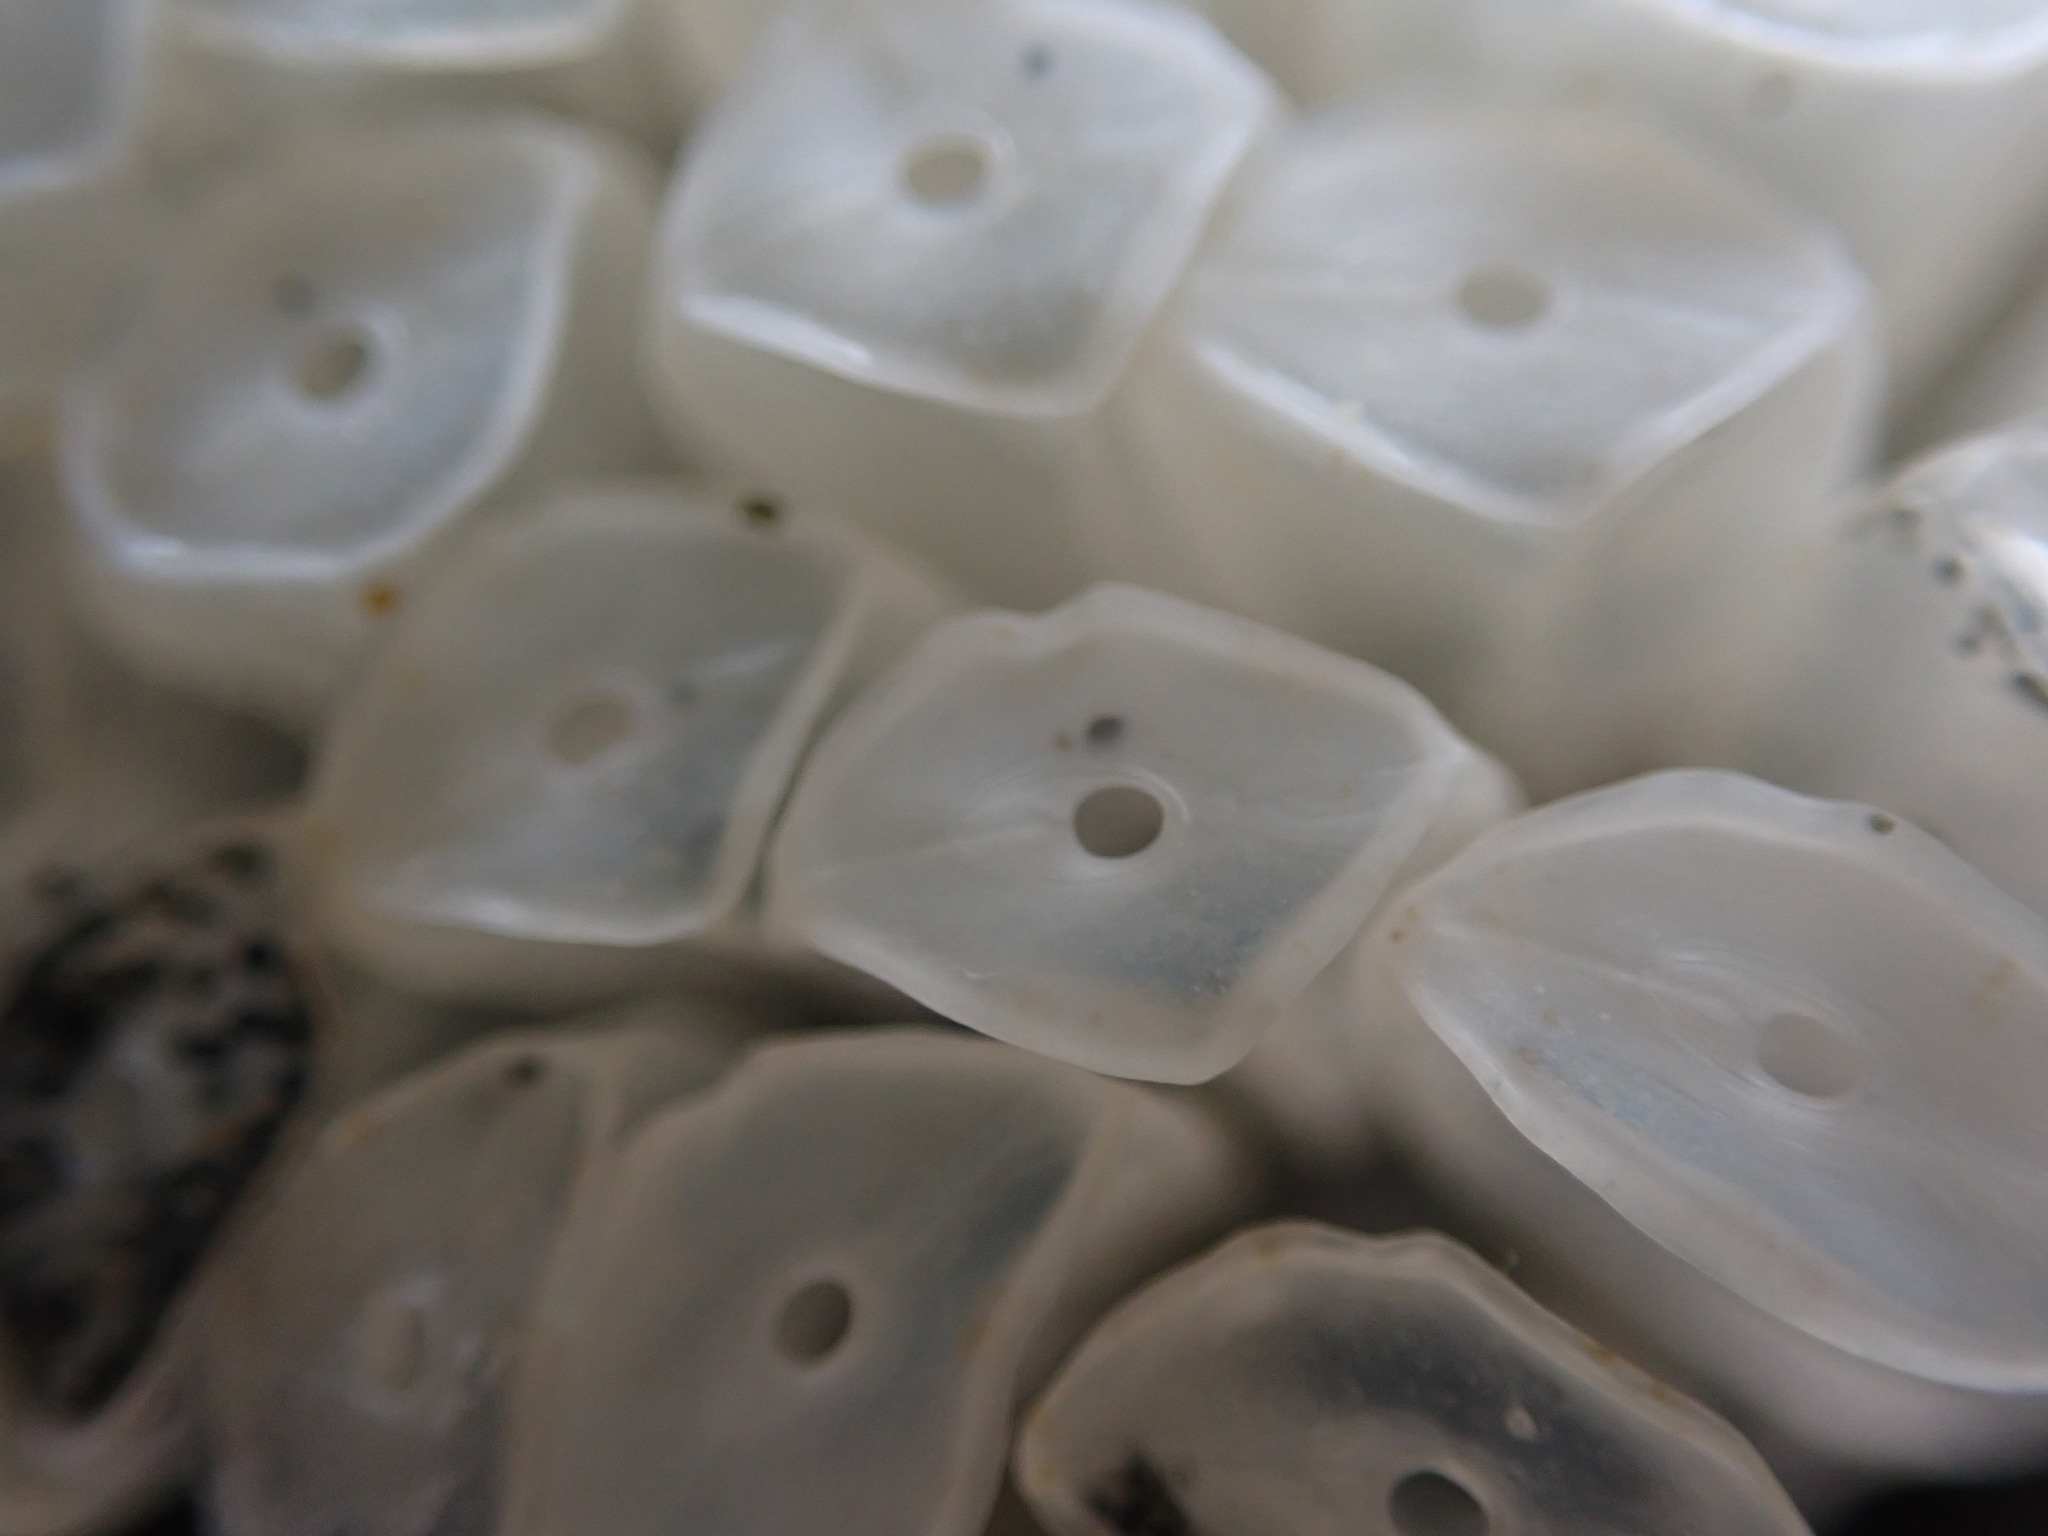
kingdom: Animalia
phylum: Mollusca
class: Gastropoda
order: Neogastropoda
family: Muricidae
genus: Dicathais
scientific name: Dicathais orbita
